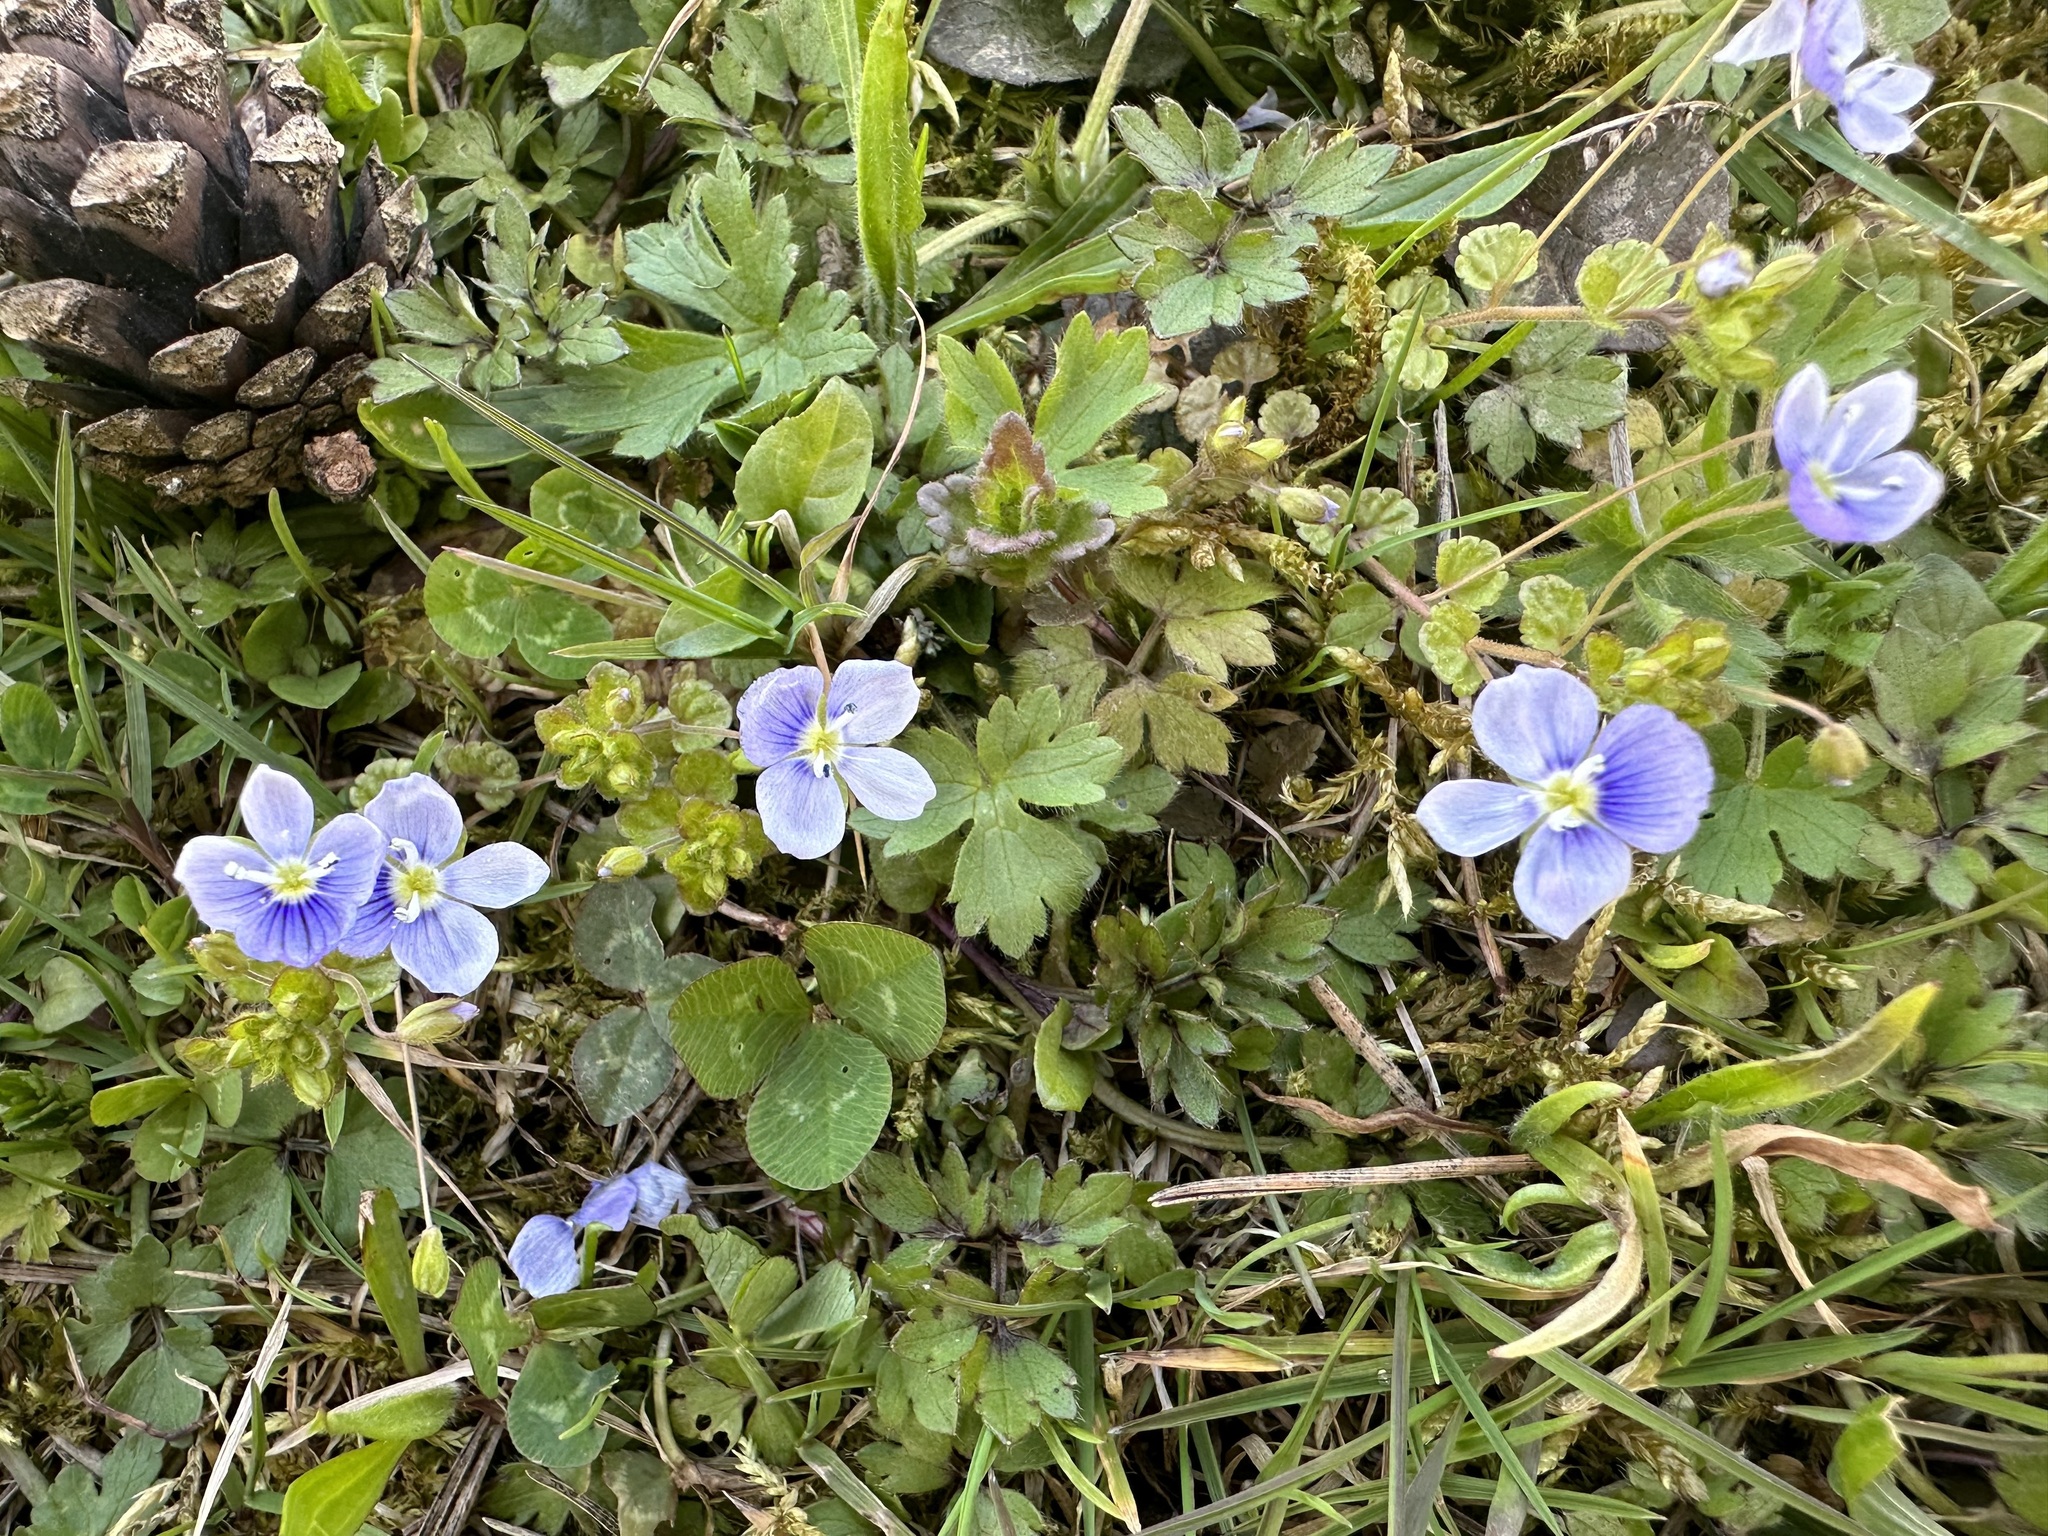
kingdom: Plantae
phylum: Tracheophyta
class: Magnoliopsida
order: Lamiales
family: Plantaginaceae
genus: Veronica
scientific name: Veronica filiformis
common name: Slender speedwell
